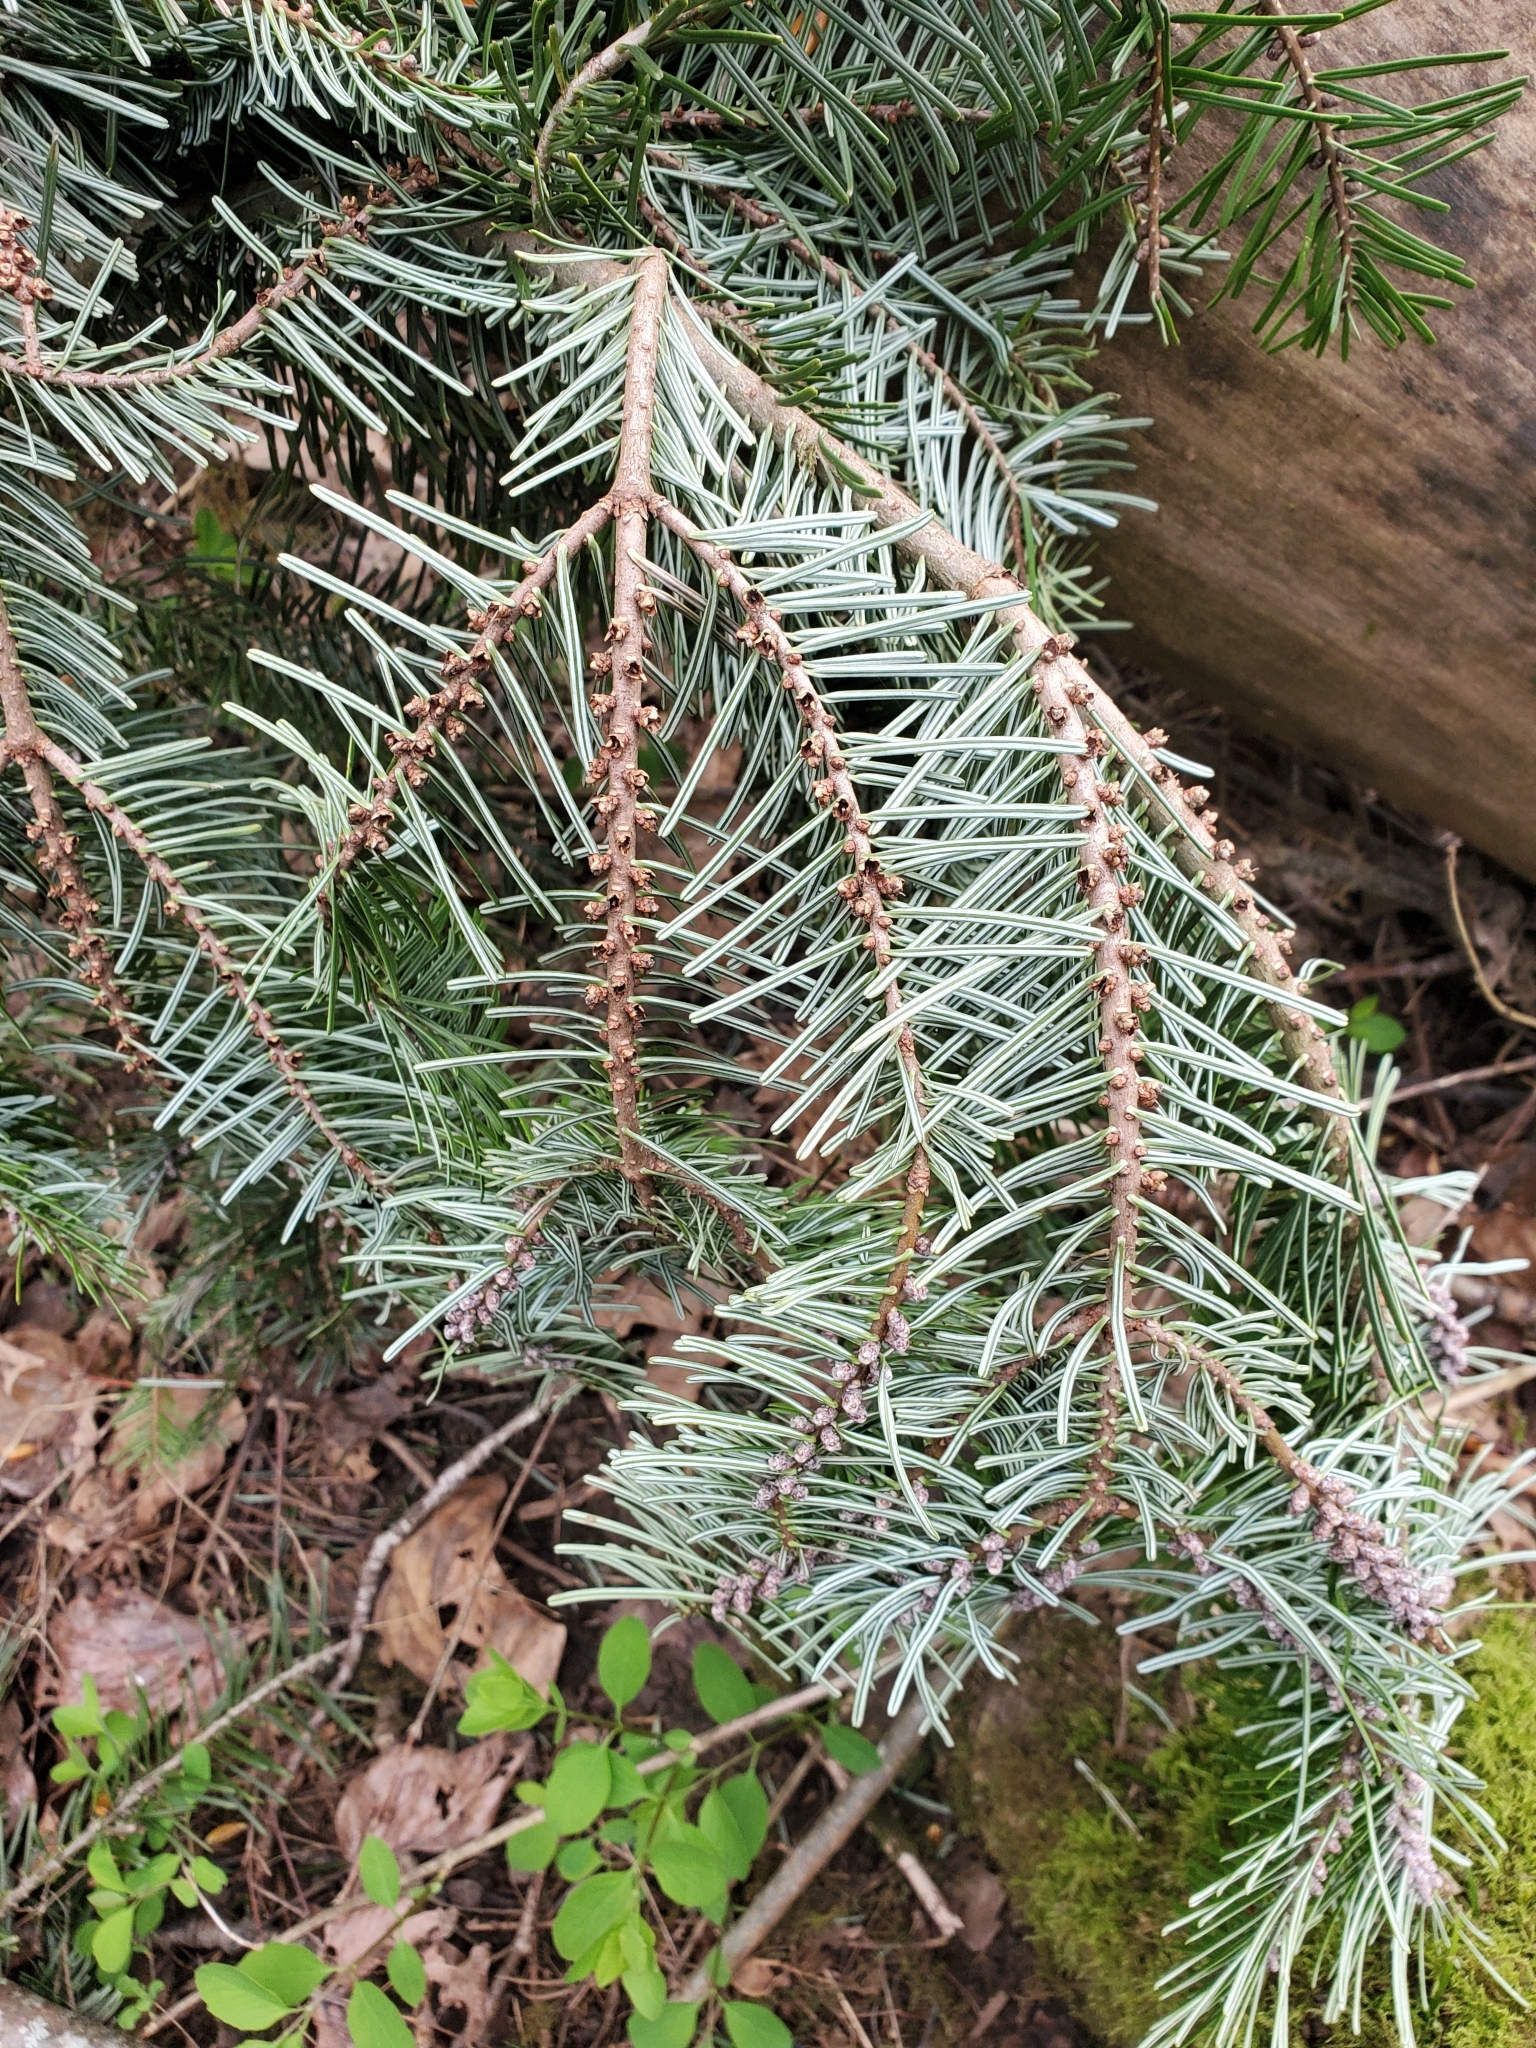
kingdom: Plantae
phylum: Tracheophyta
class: Pinopsida
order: Pinales
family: Pinaceae
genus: Abies
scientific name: Abies grandis
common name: Giant fir
